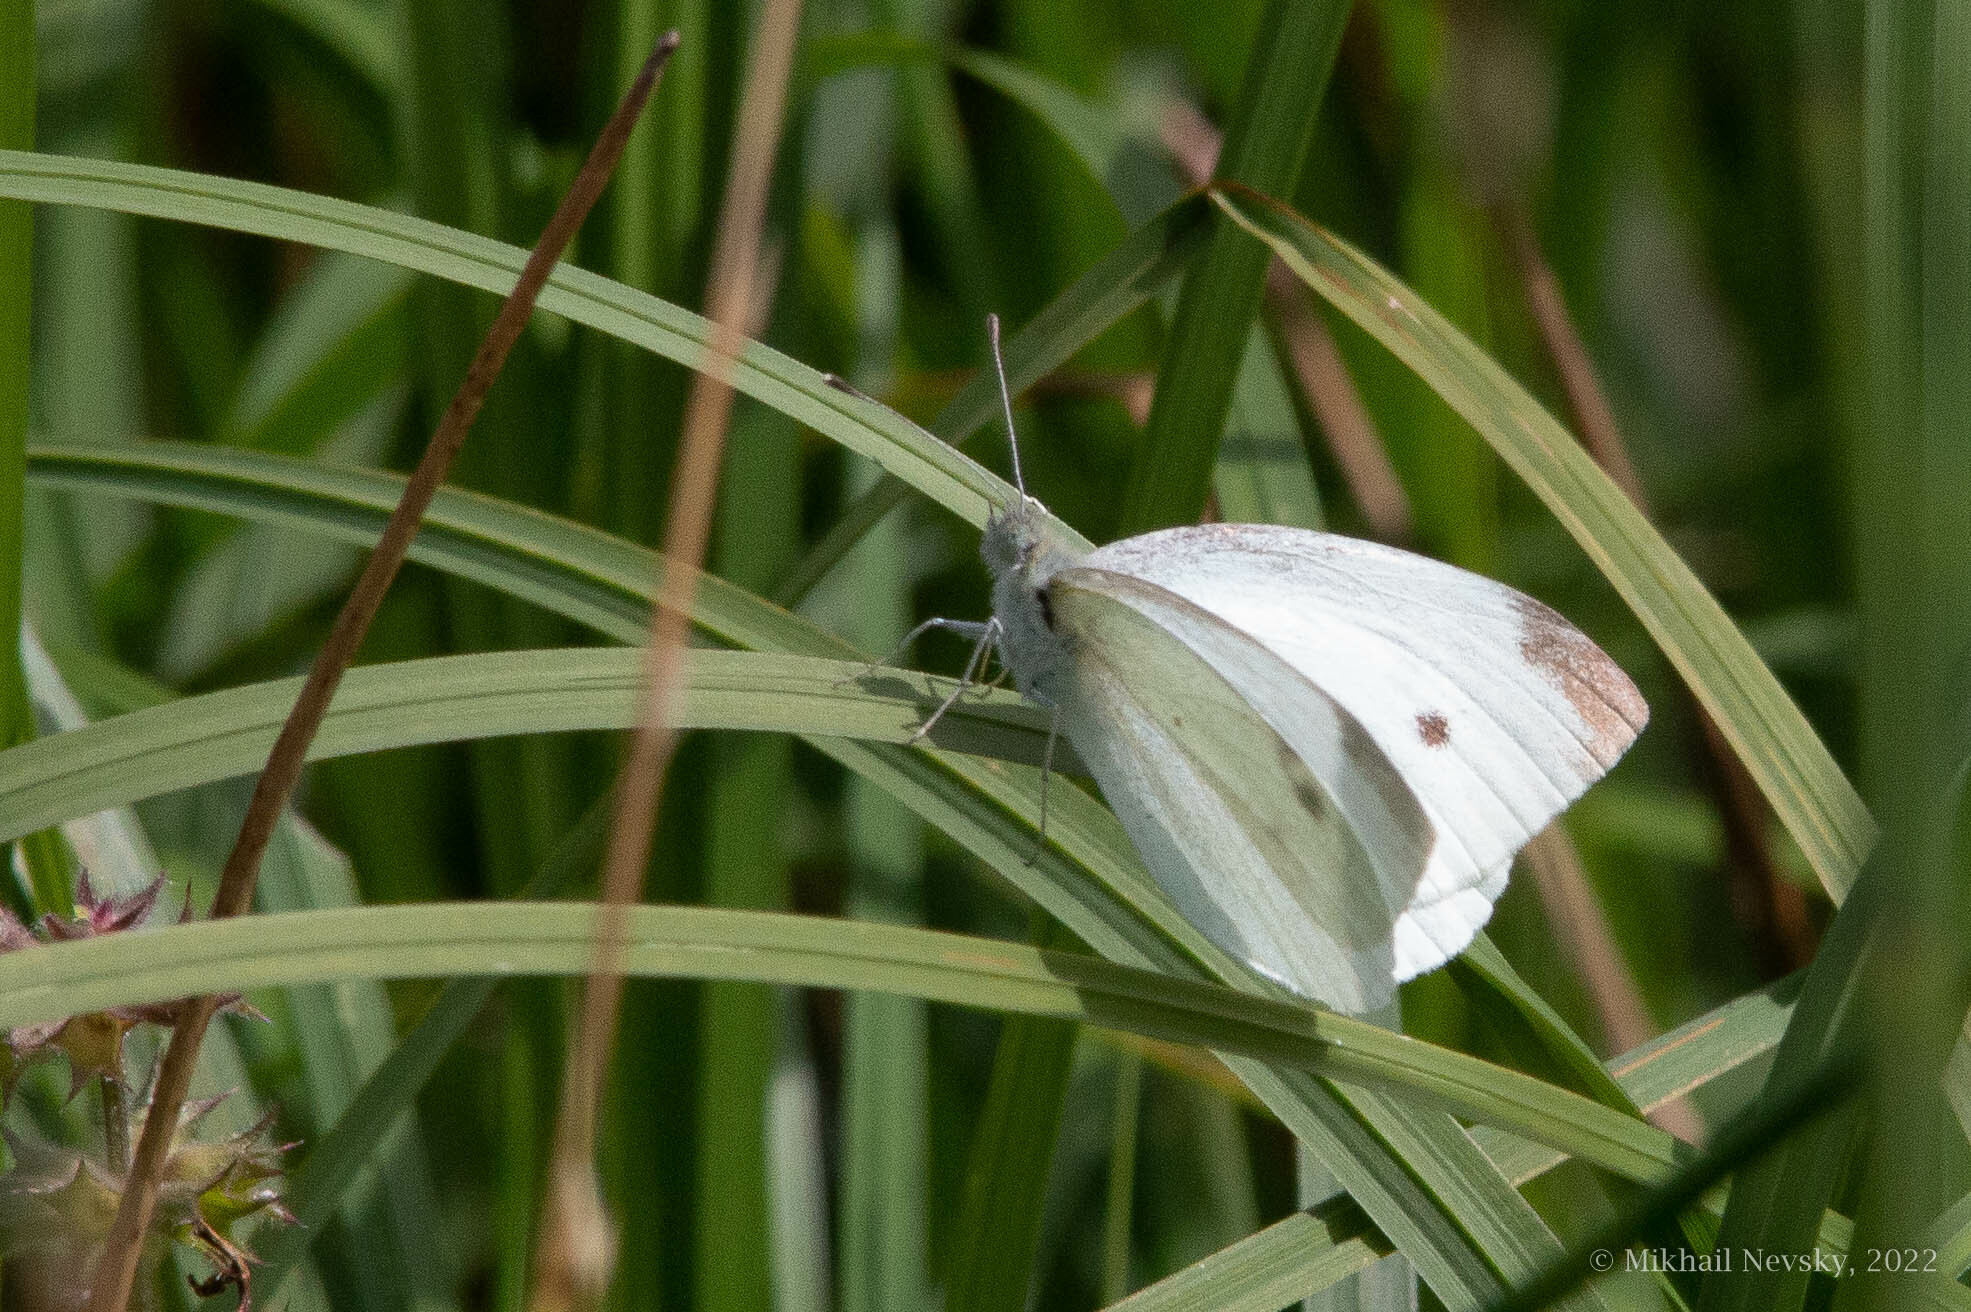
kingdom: Animalia
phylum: Arthropoda
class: Insecta
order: Lepidoptera
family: Pieridae
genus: Pieris
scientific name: Pieris rapae
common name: Small white
